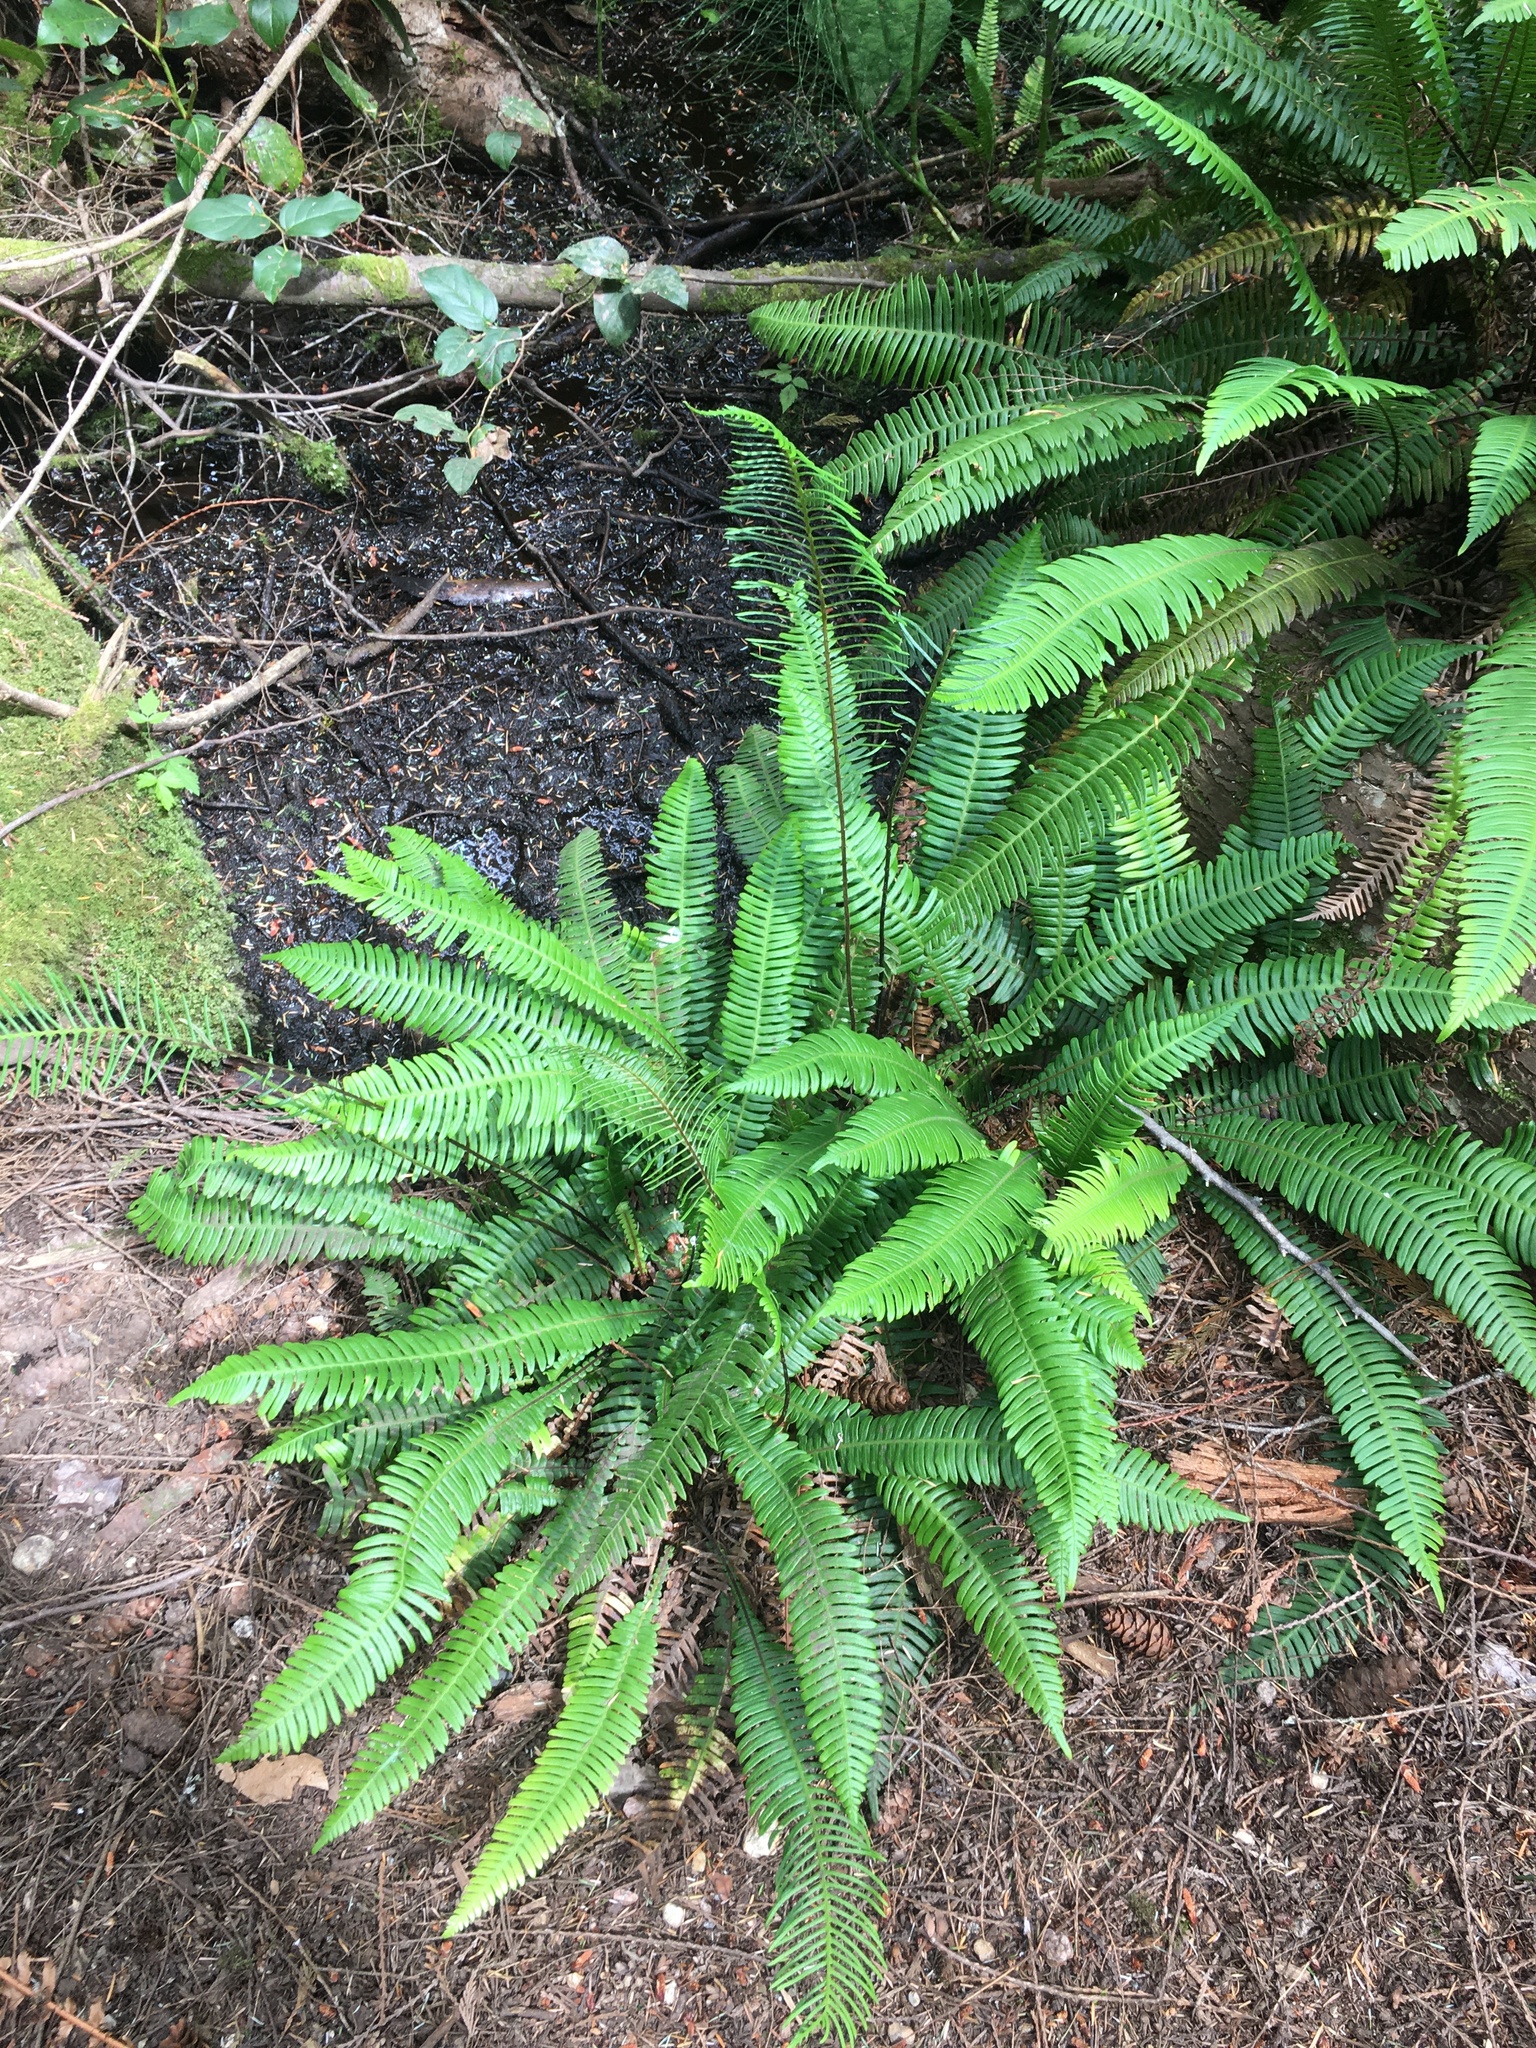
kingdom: Plantae
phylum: Tracheophyta
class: Polypodiopsida
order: Polypodiales
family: Blechnaceae
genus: Struthiopteris
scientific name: Struthiopteris spicant
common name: Deer fern
